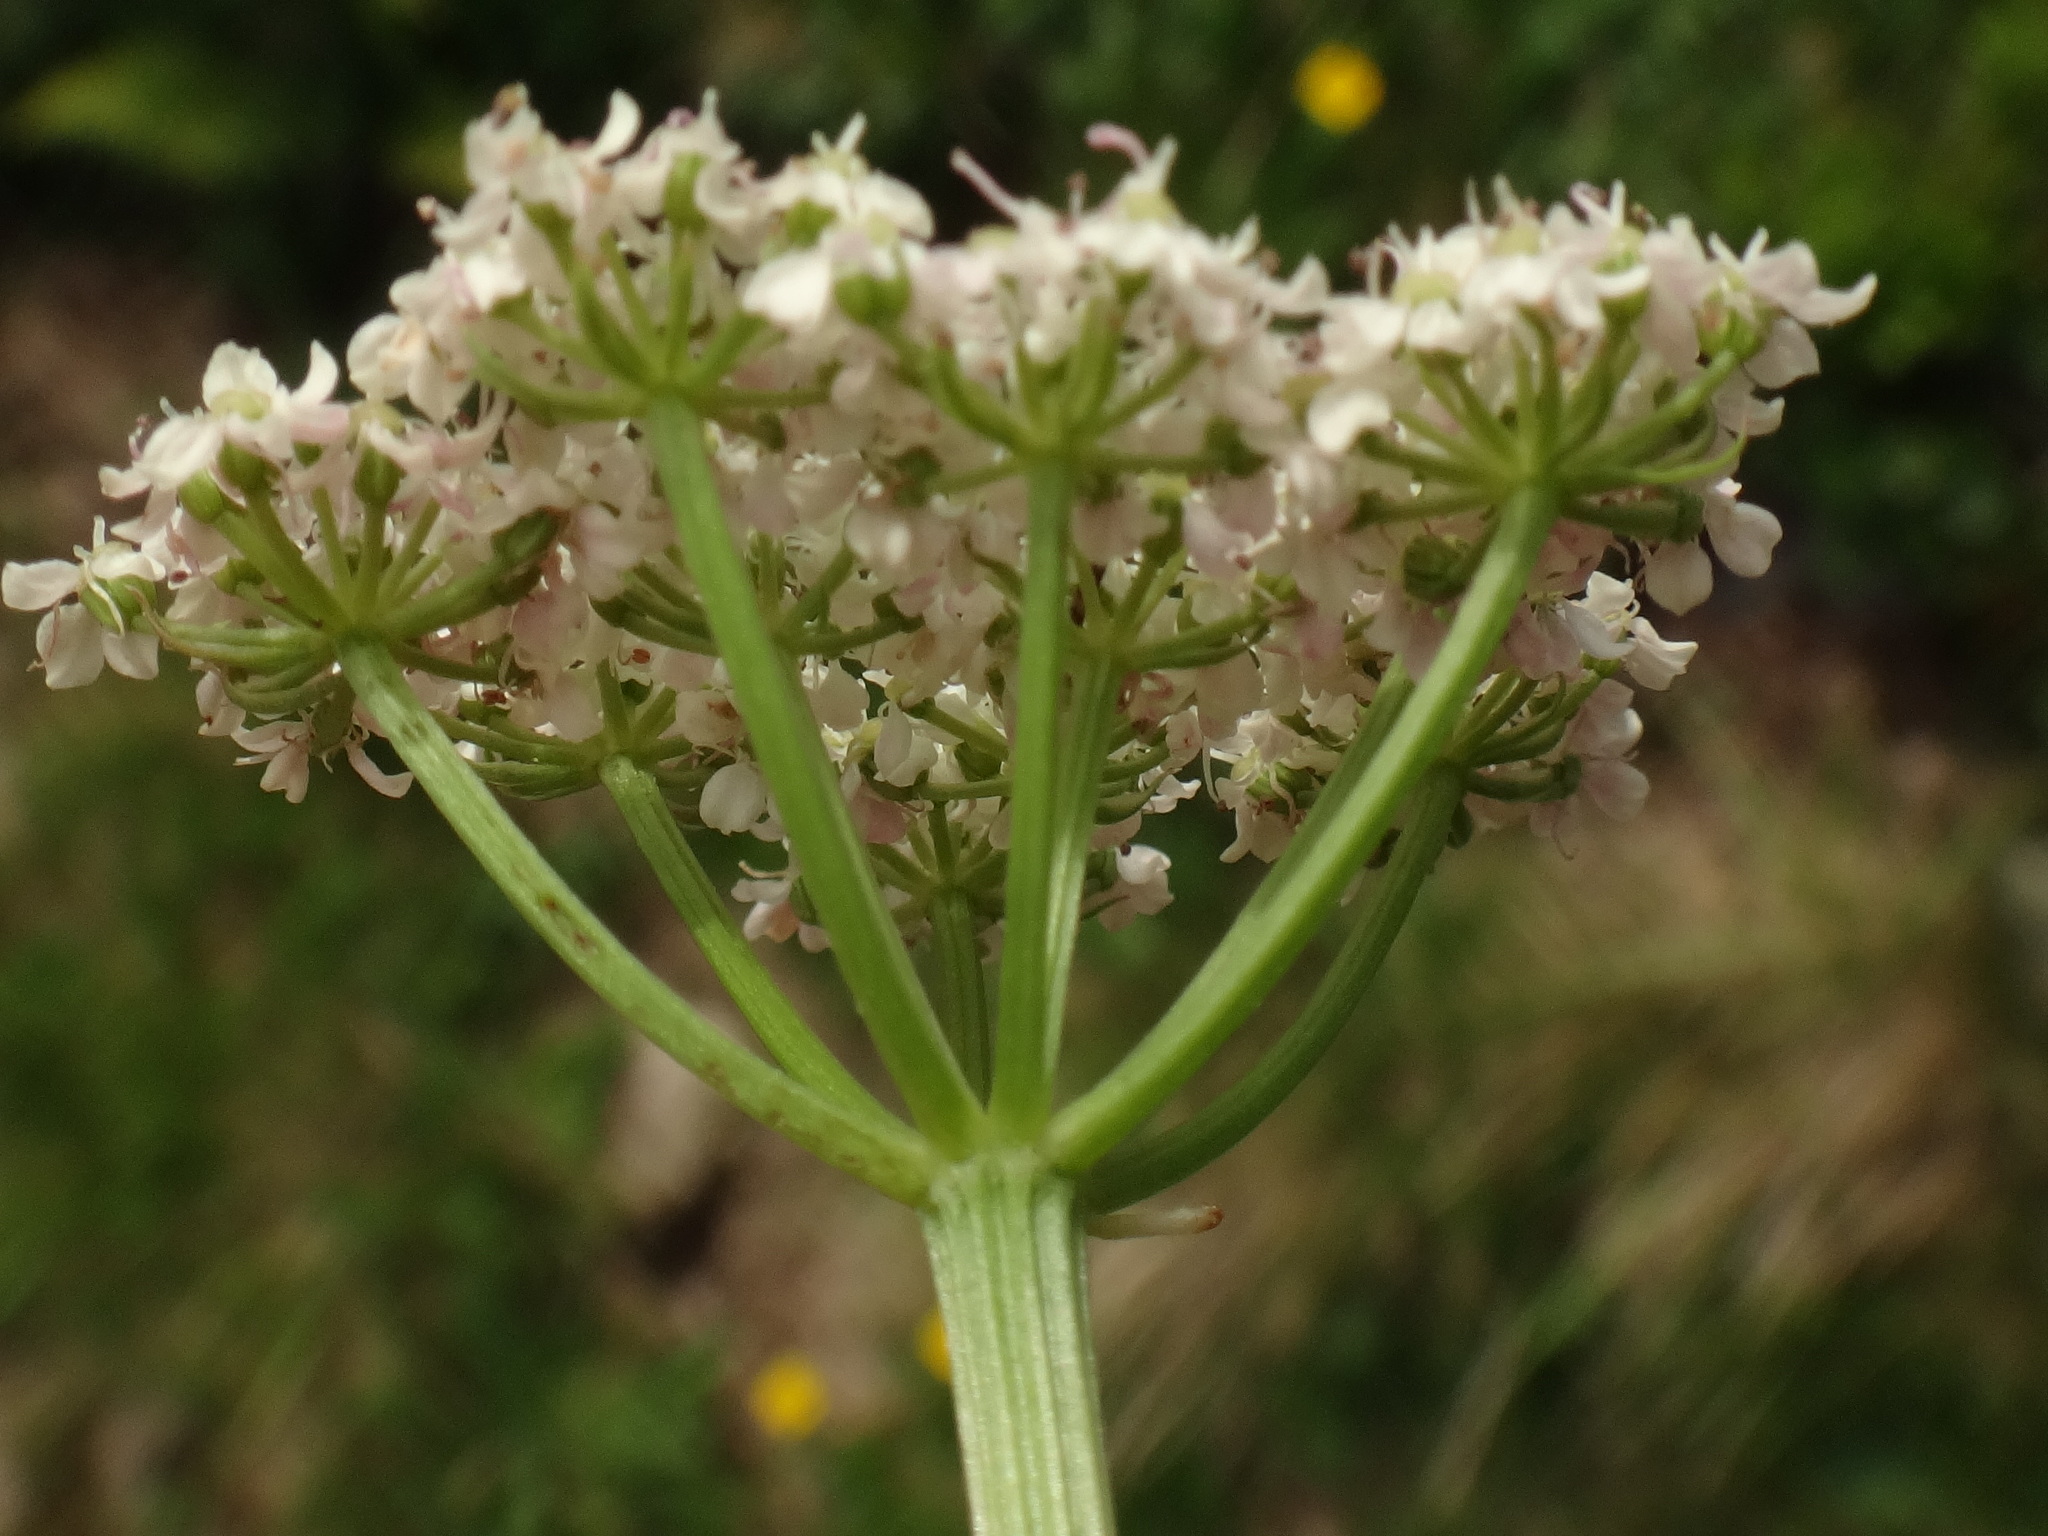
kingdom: Plantae
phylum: Tracheophyta
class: Magnoliopsida
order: Apiales
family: Apiaceae
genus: Mutellina
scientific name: Mutellina adonidifolia
